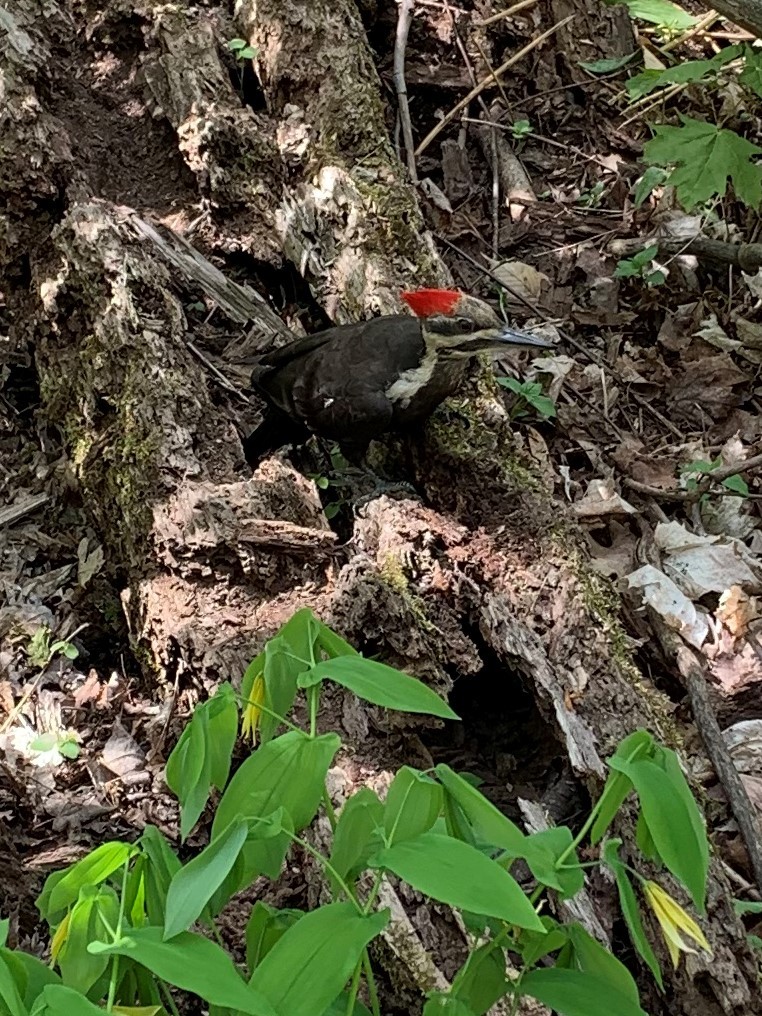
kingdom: Animalia
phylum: Chordata
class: Aves
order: Piciformes
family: Picidae
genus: Dryocopus
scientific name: Dryocopus pileatus
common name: Pileated woodpecker
